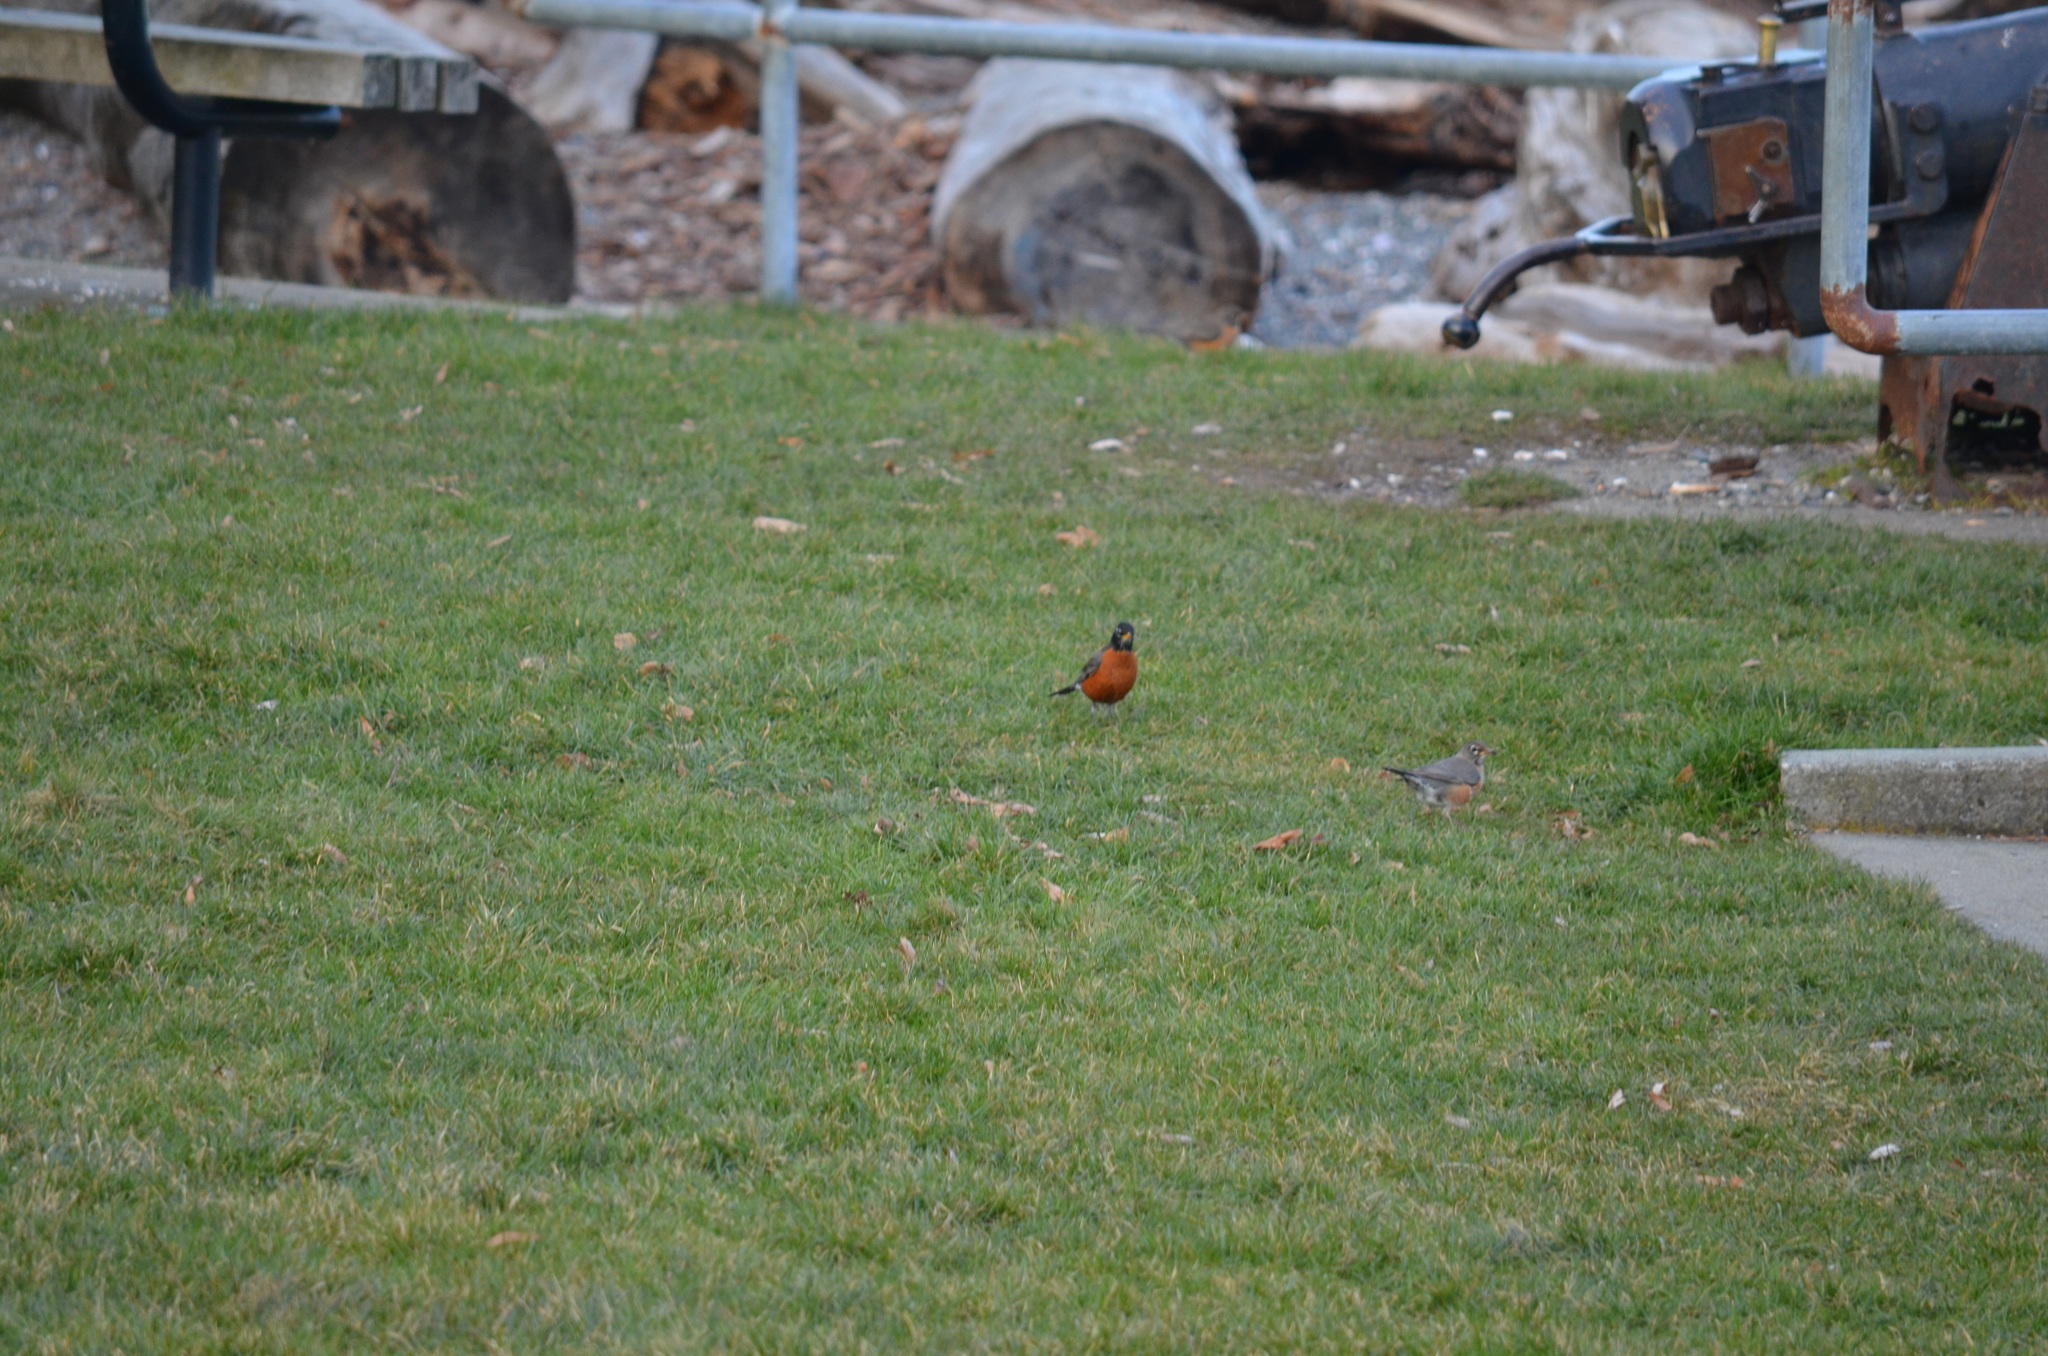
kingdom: Animalia
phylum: Chordata
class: Aves
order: Passeriformes
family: Turdidae
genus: Turdus
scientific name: Turdus migratorius
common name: American robin
